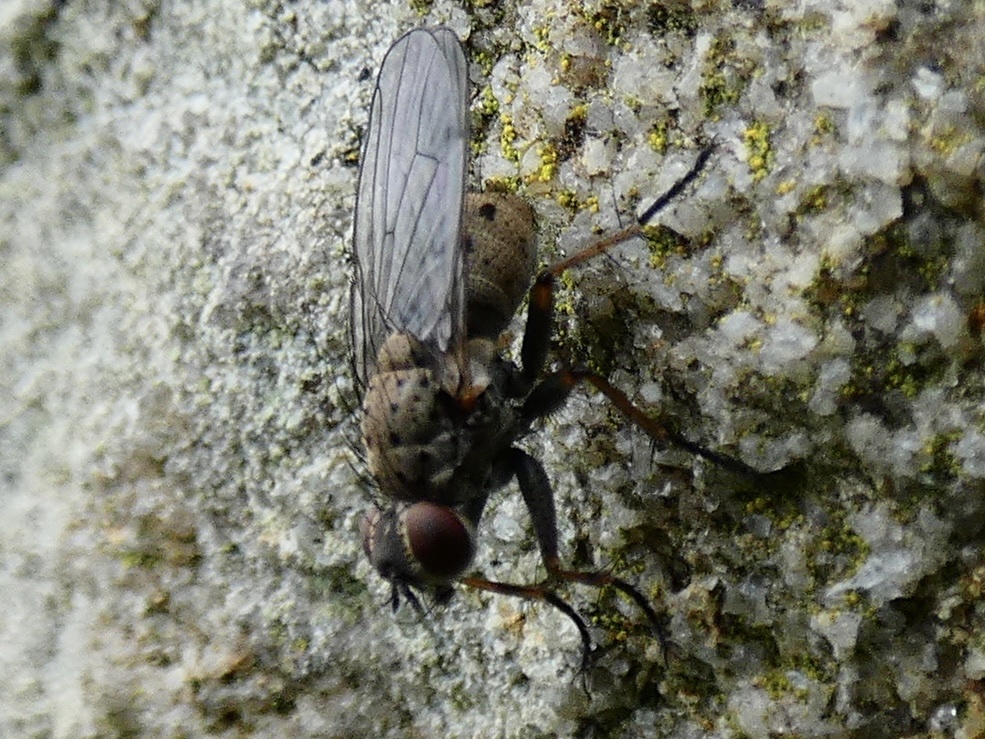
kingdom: Animalia
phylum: Arthropoda
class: Insecta
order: Diptera
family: Muscidae
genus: Coenosia
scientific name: Coenosia tigrina
